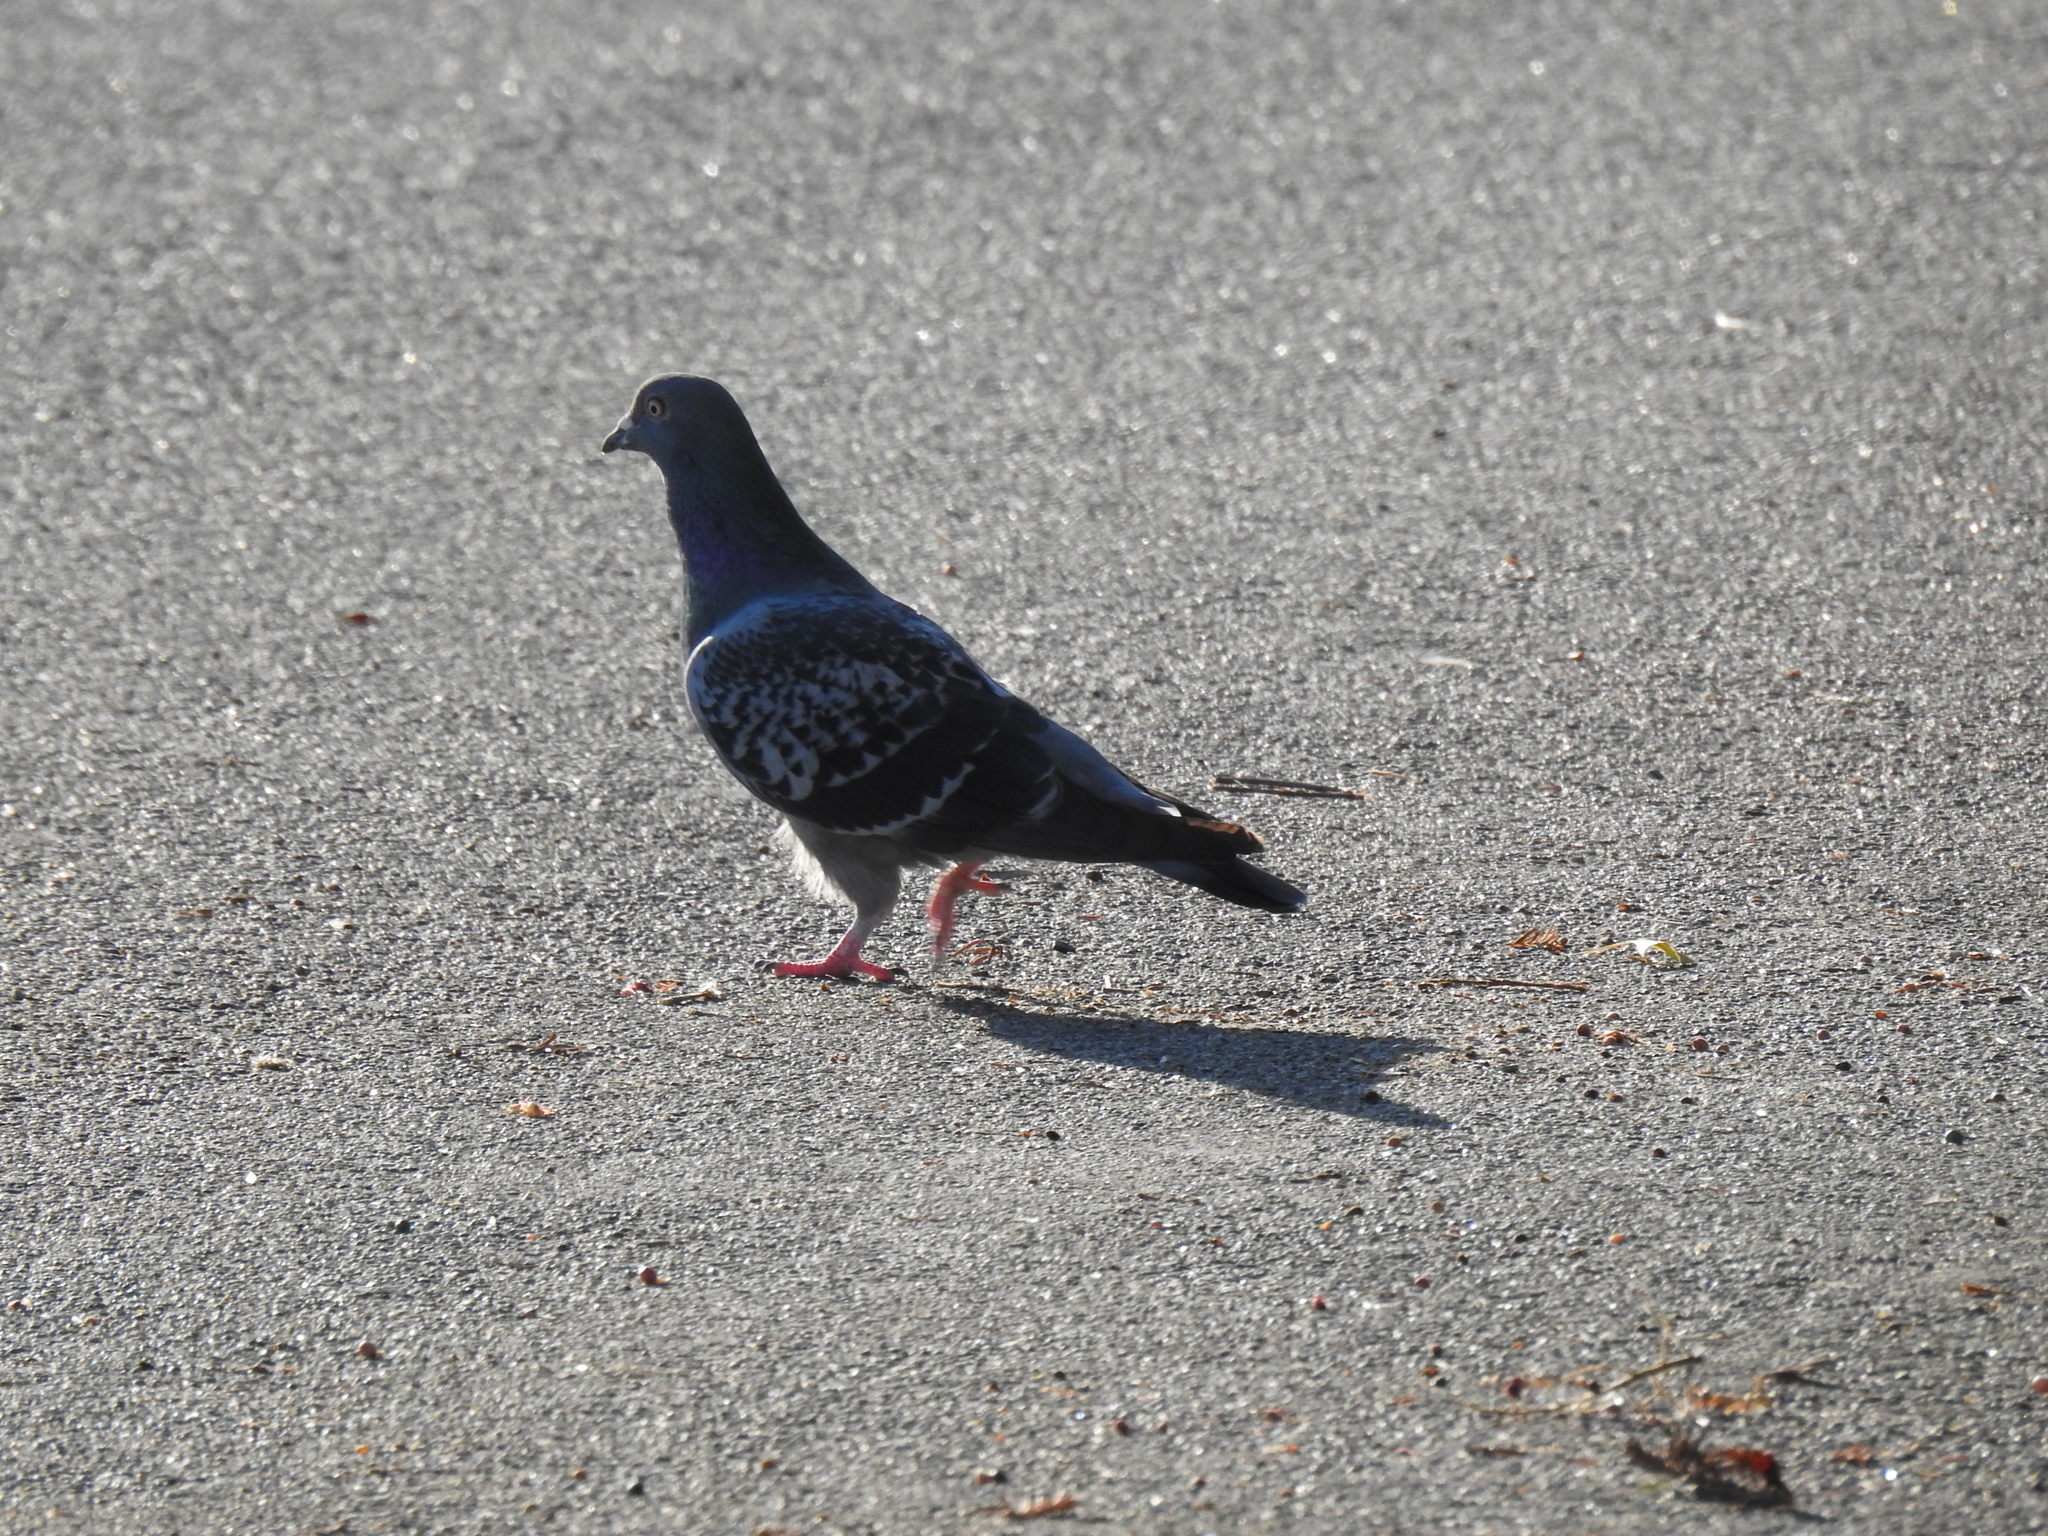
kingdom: Animalia
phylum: Chordata
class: Aves
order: Columbiformes
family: Columbidae
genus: Columba
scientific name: Columba livia
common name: Rock pigeon
